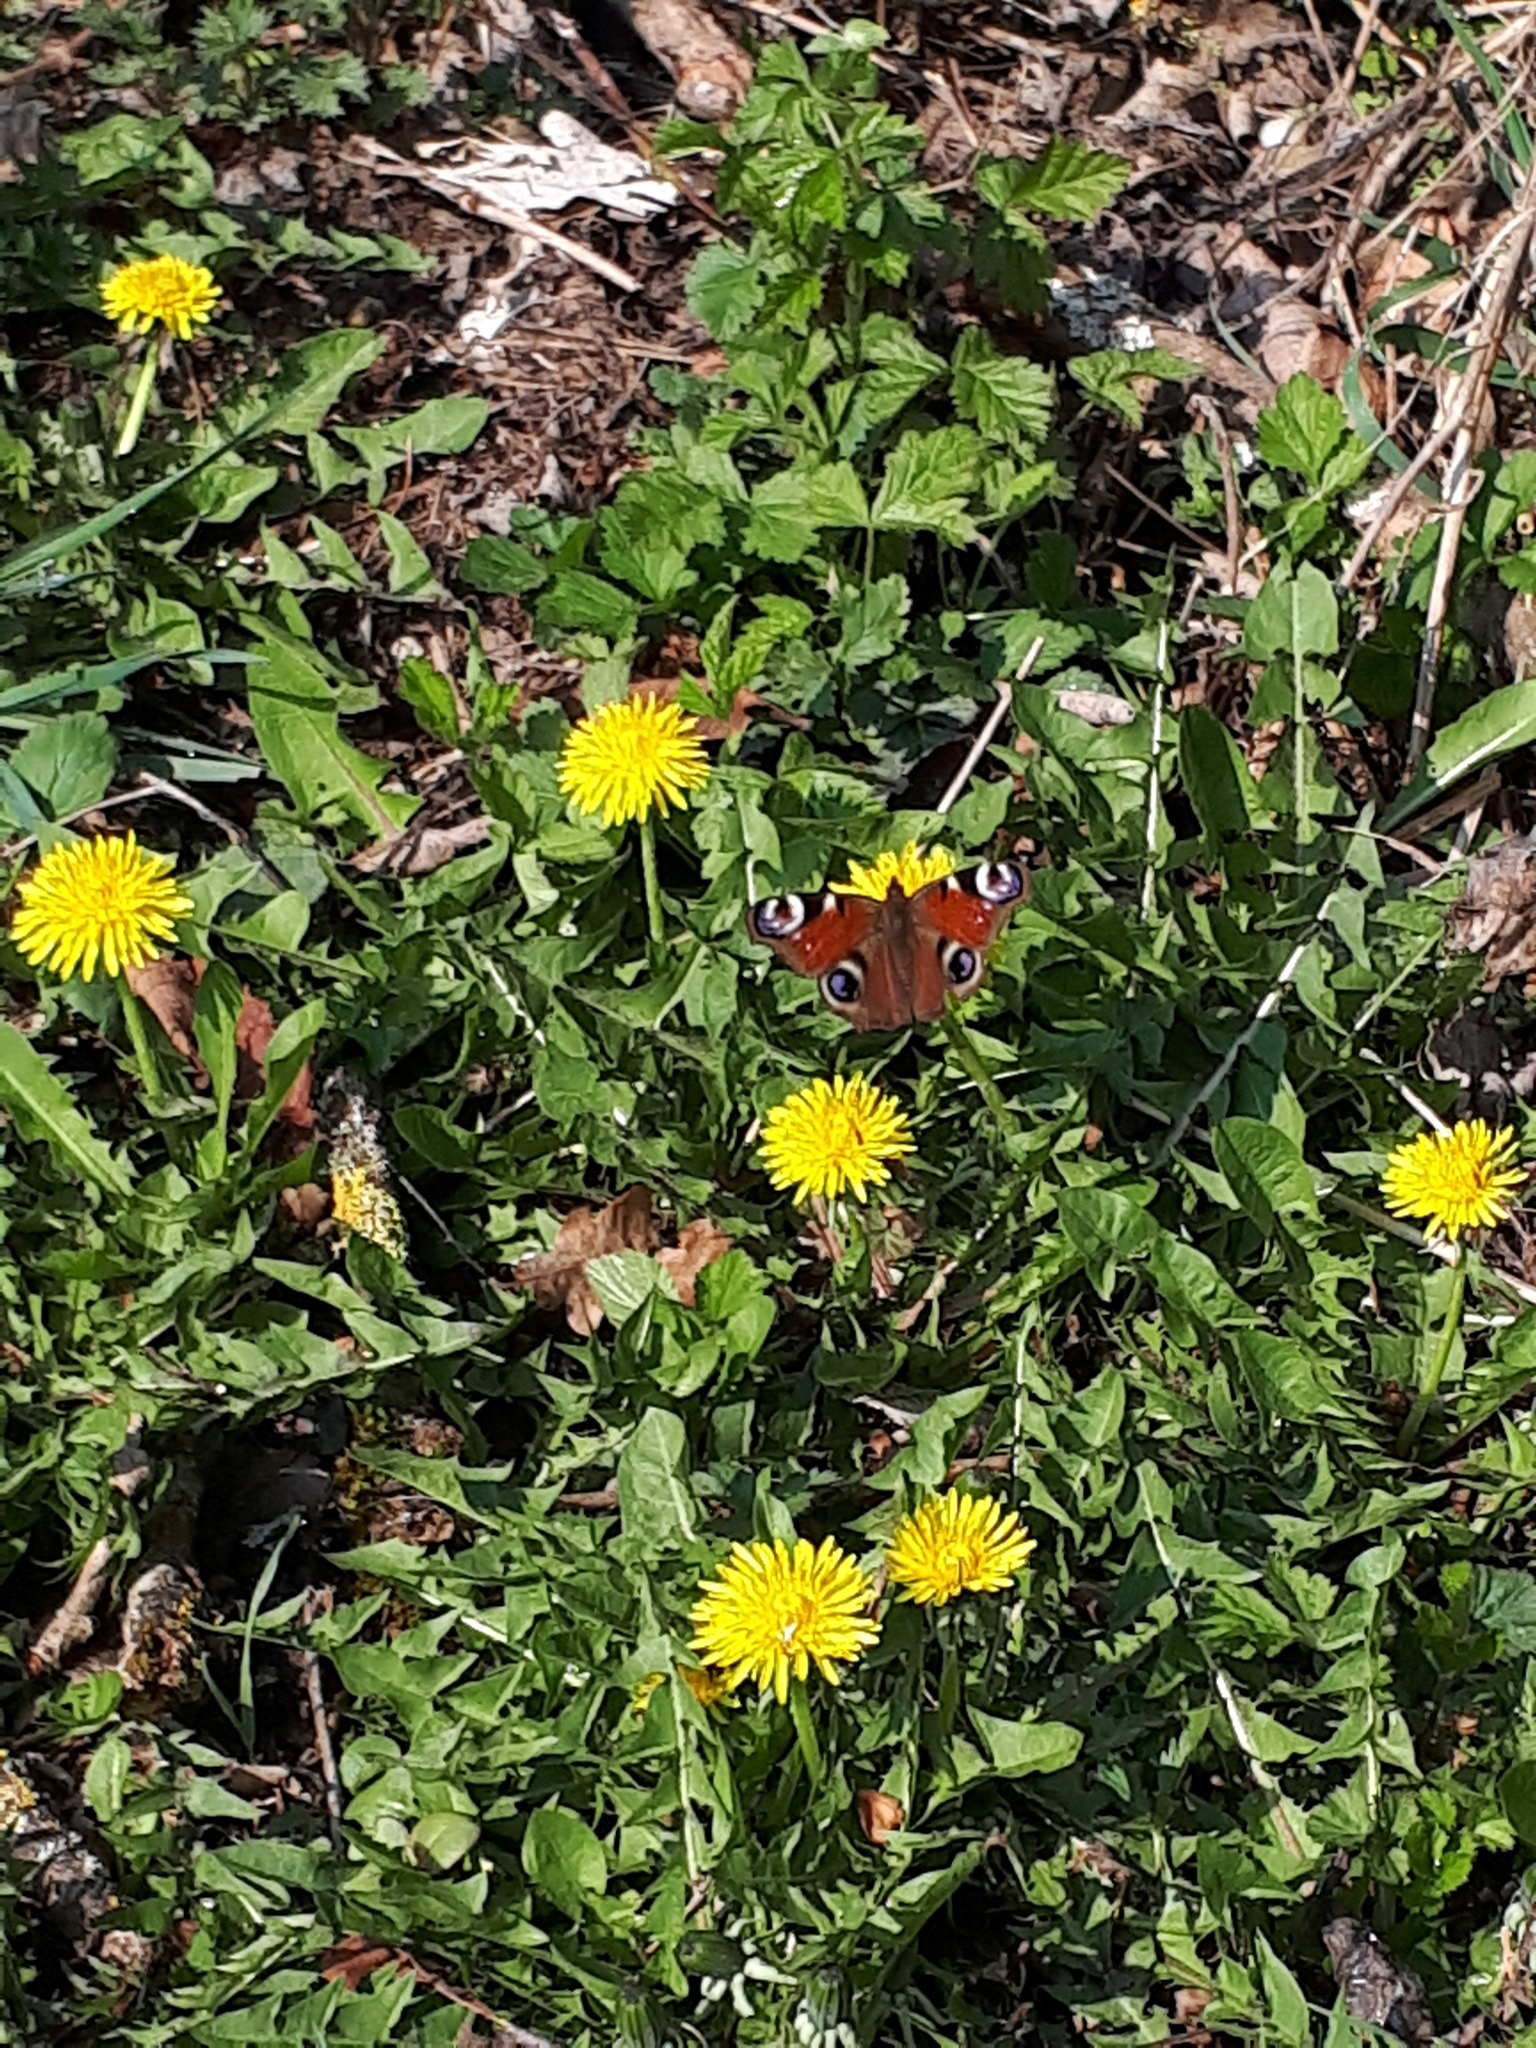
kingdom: Animalia
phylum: Arthropoda
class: Insecta
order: Lepidoptera
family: Nymphalidae
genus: Aglais
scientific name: Aglais io
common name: Peacock
